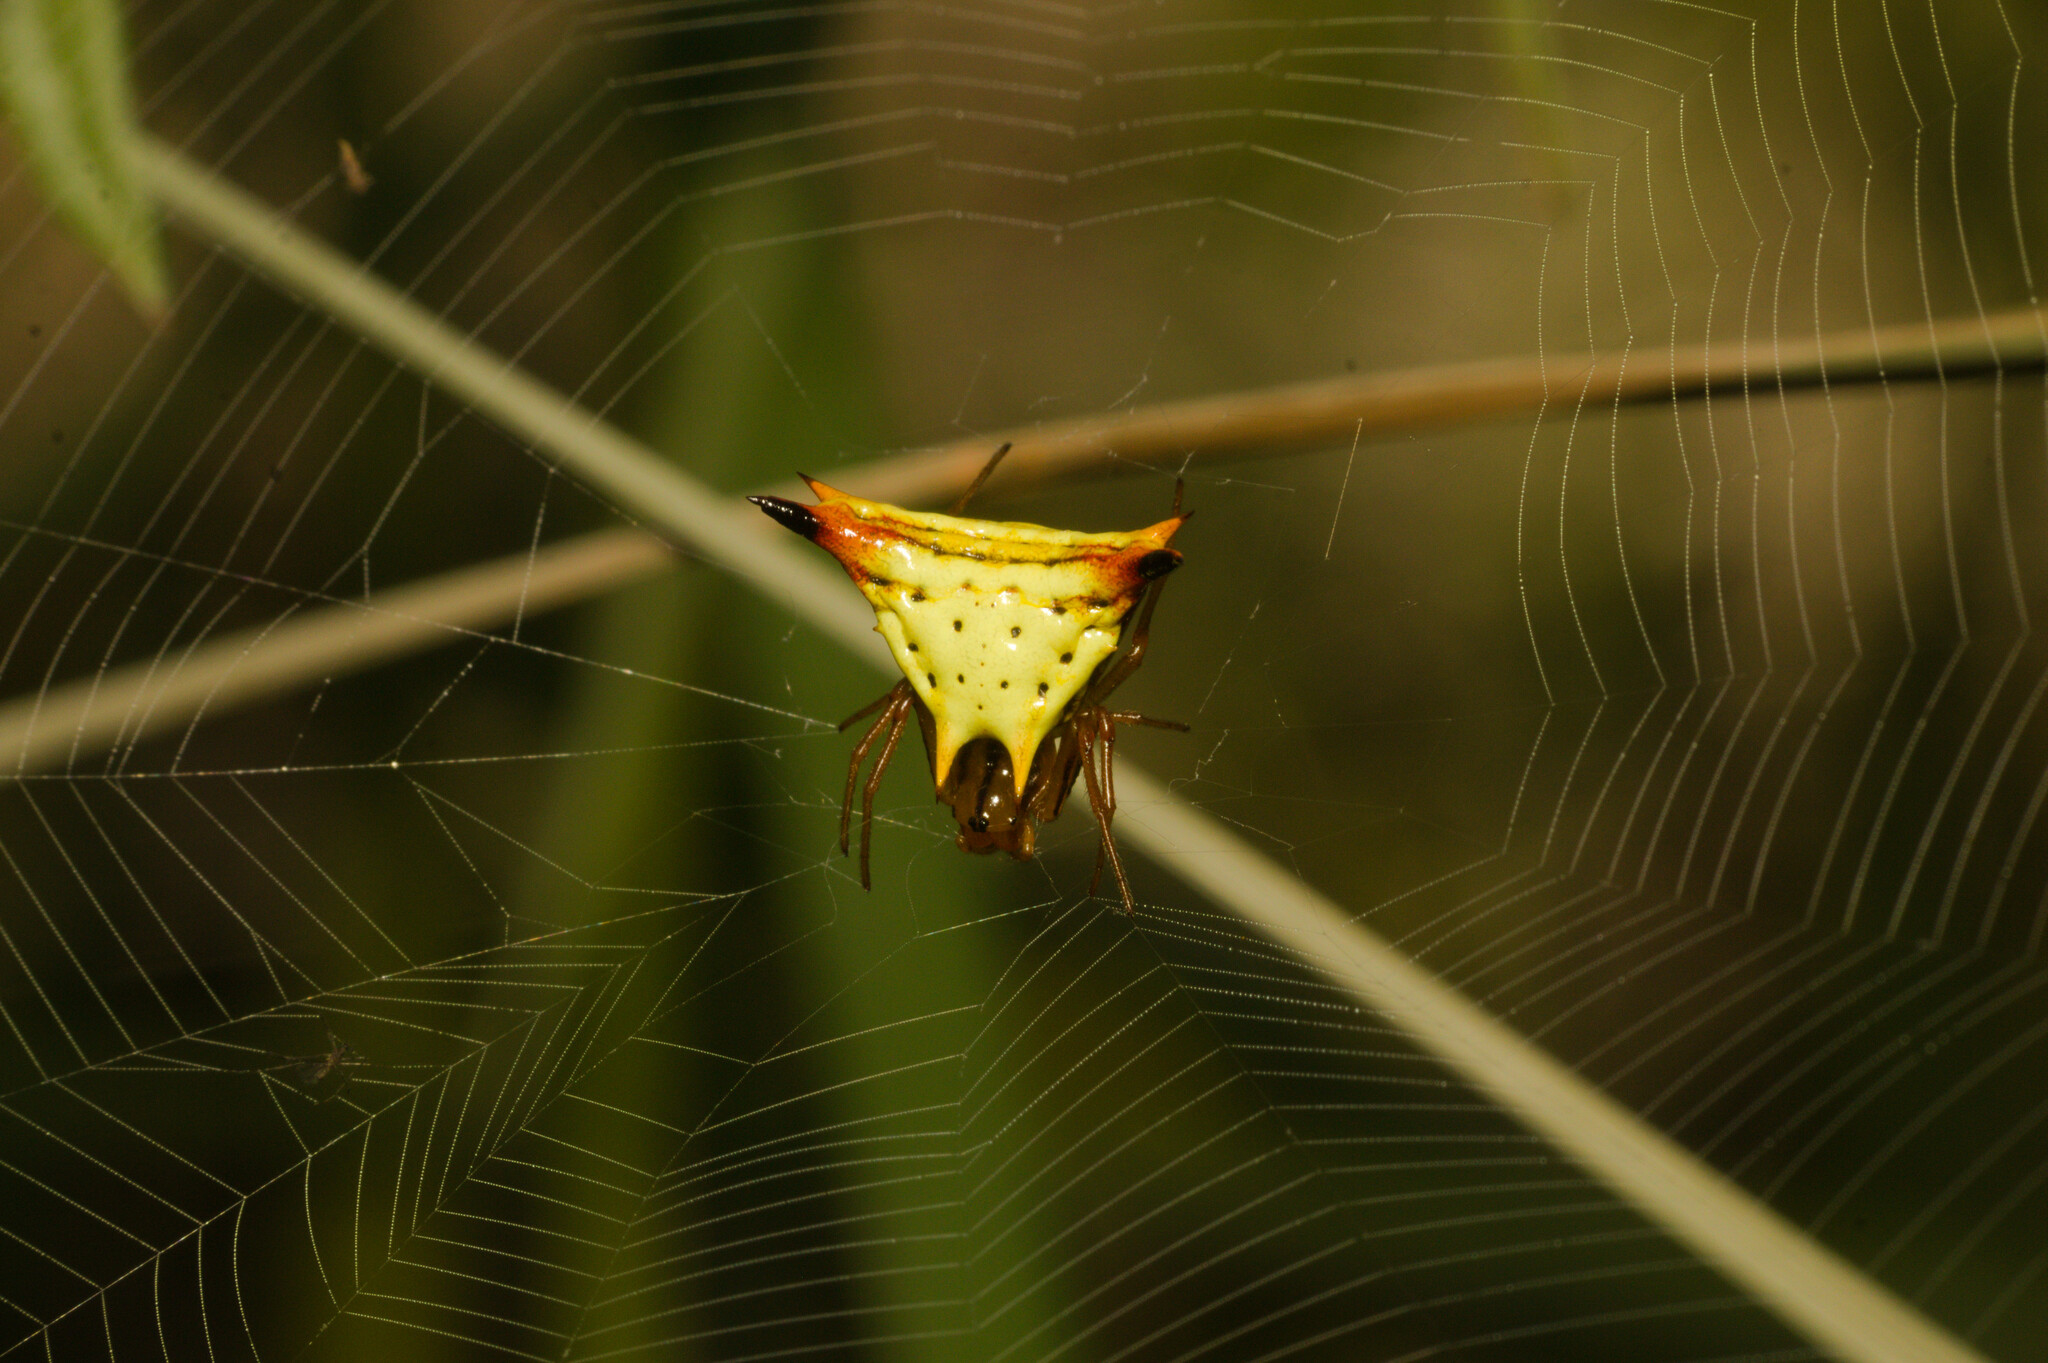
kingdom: Animalia
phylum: Arthropoda
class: Arachnida
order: Araneae
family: Araneidae
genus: Micrathena
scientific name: Micrathena furcata
